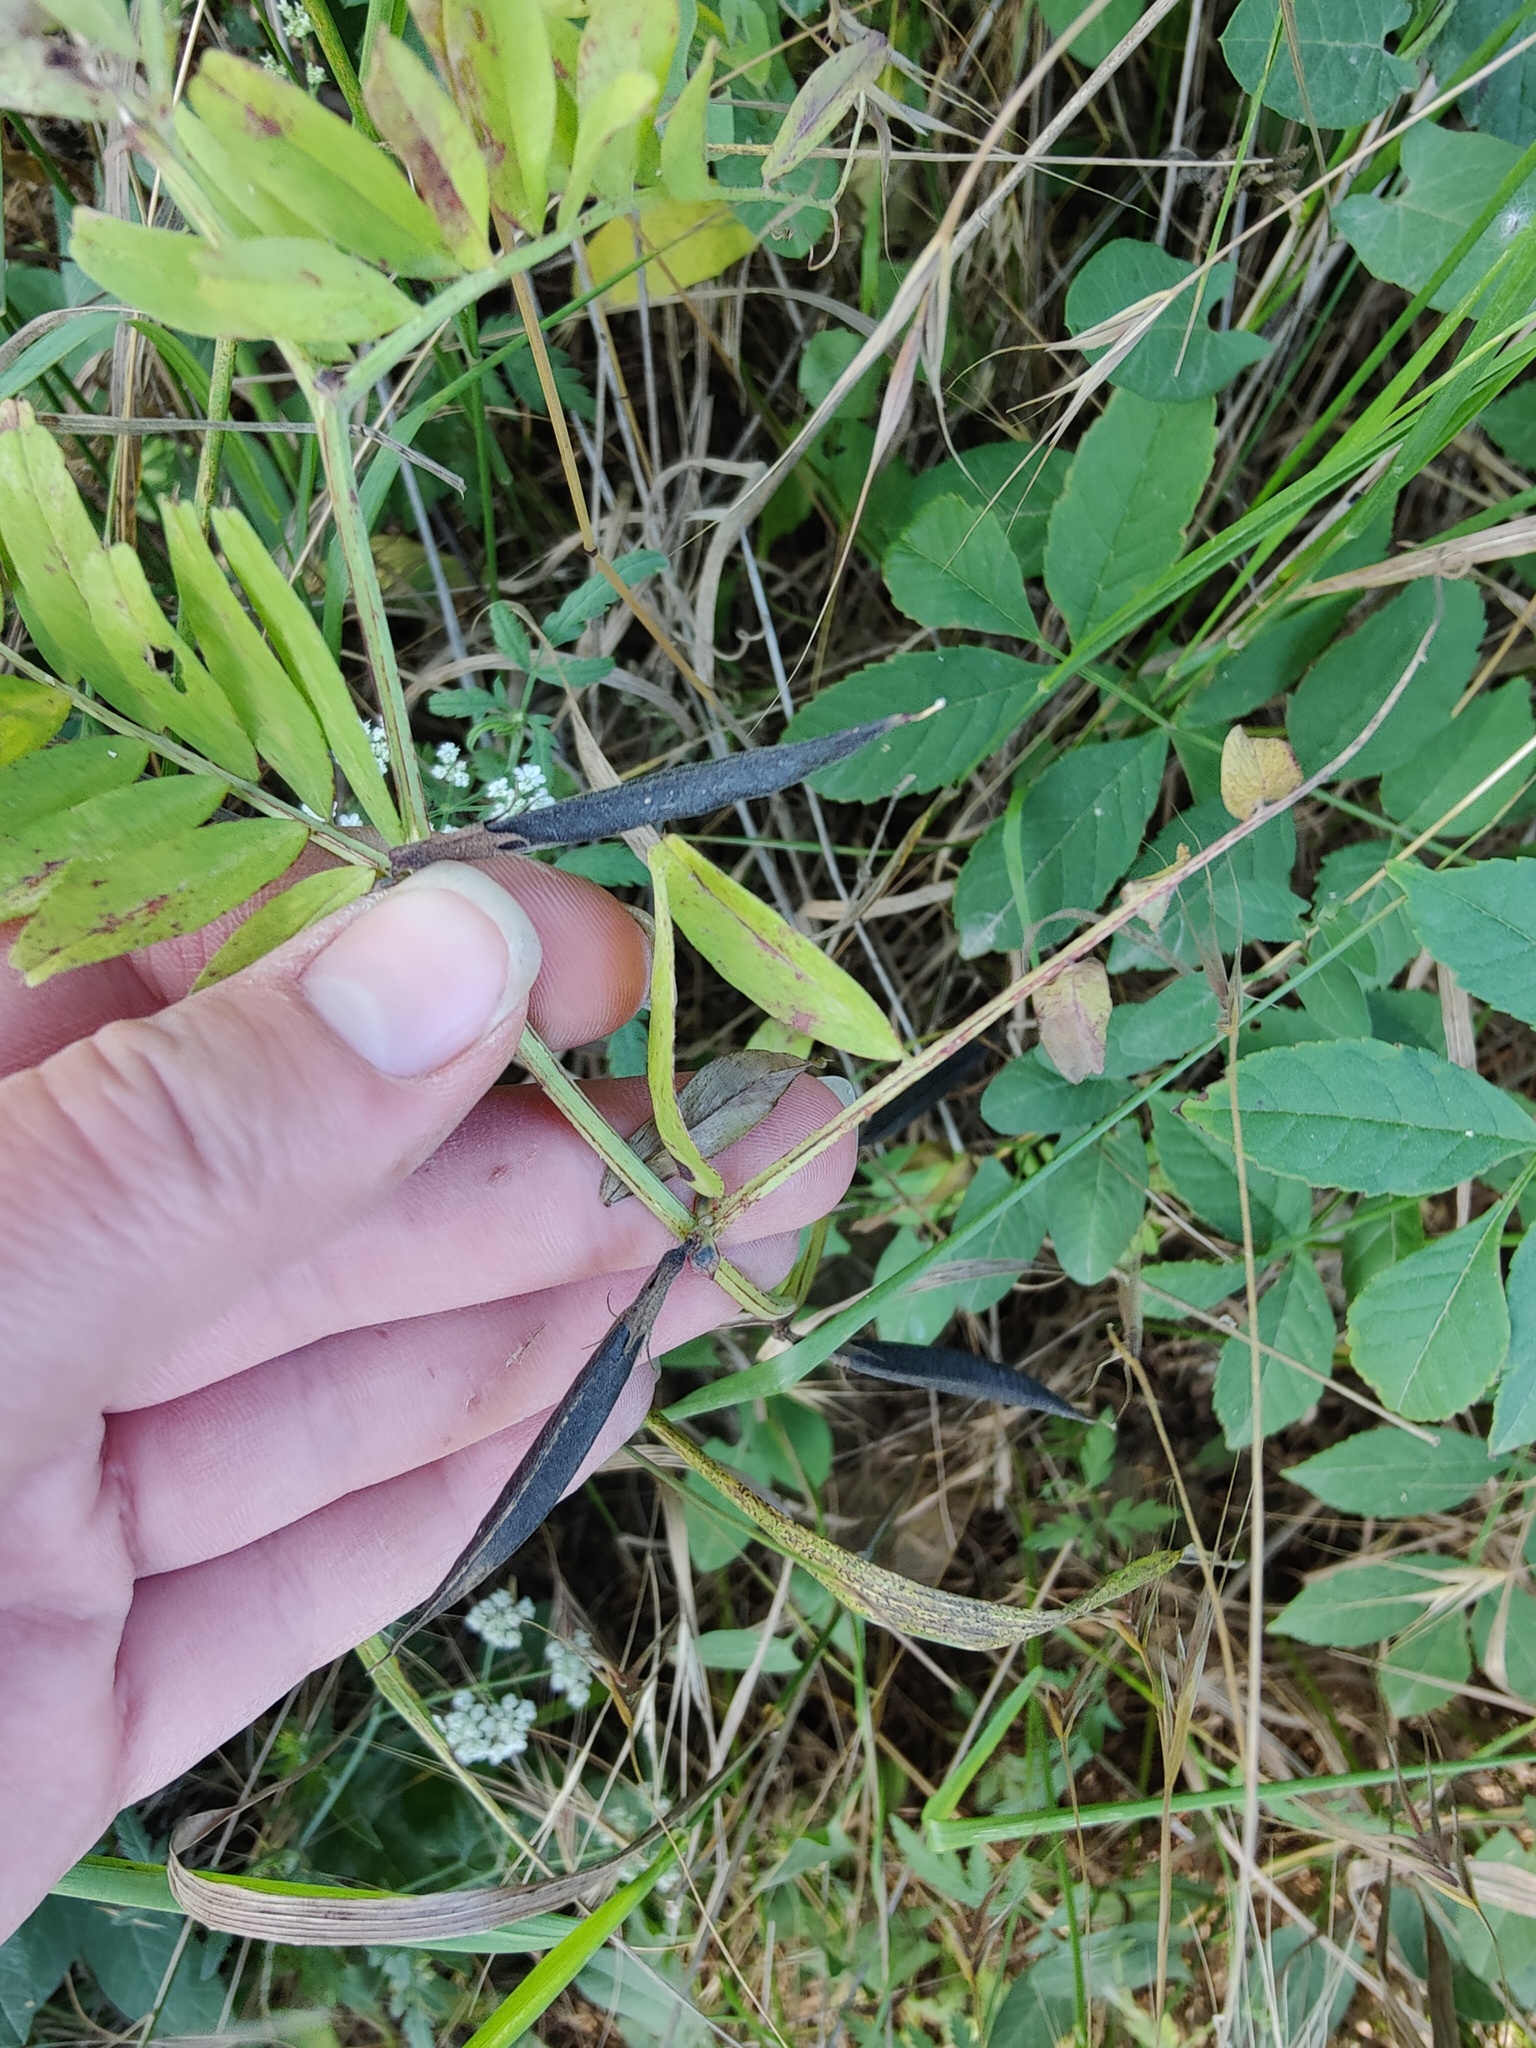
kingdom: Plantae
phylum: Tracheophyta
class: Magnoliopsida
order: Fabales
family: Fabaceae
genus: Vicia
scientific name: Vicia grandiflora
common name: Large yellow vetch
